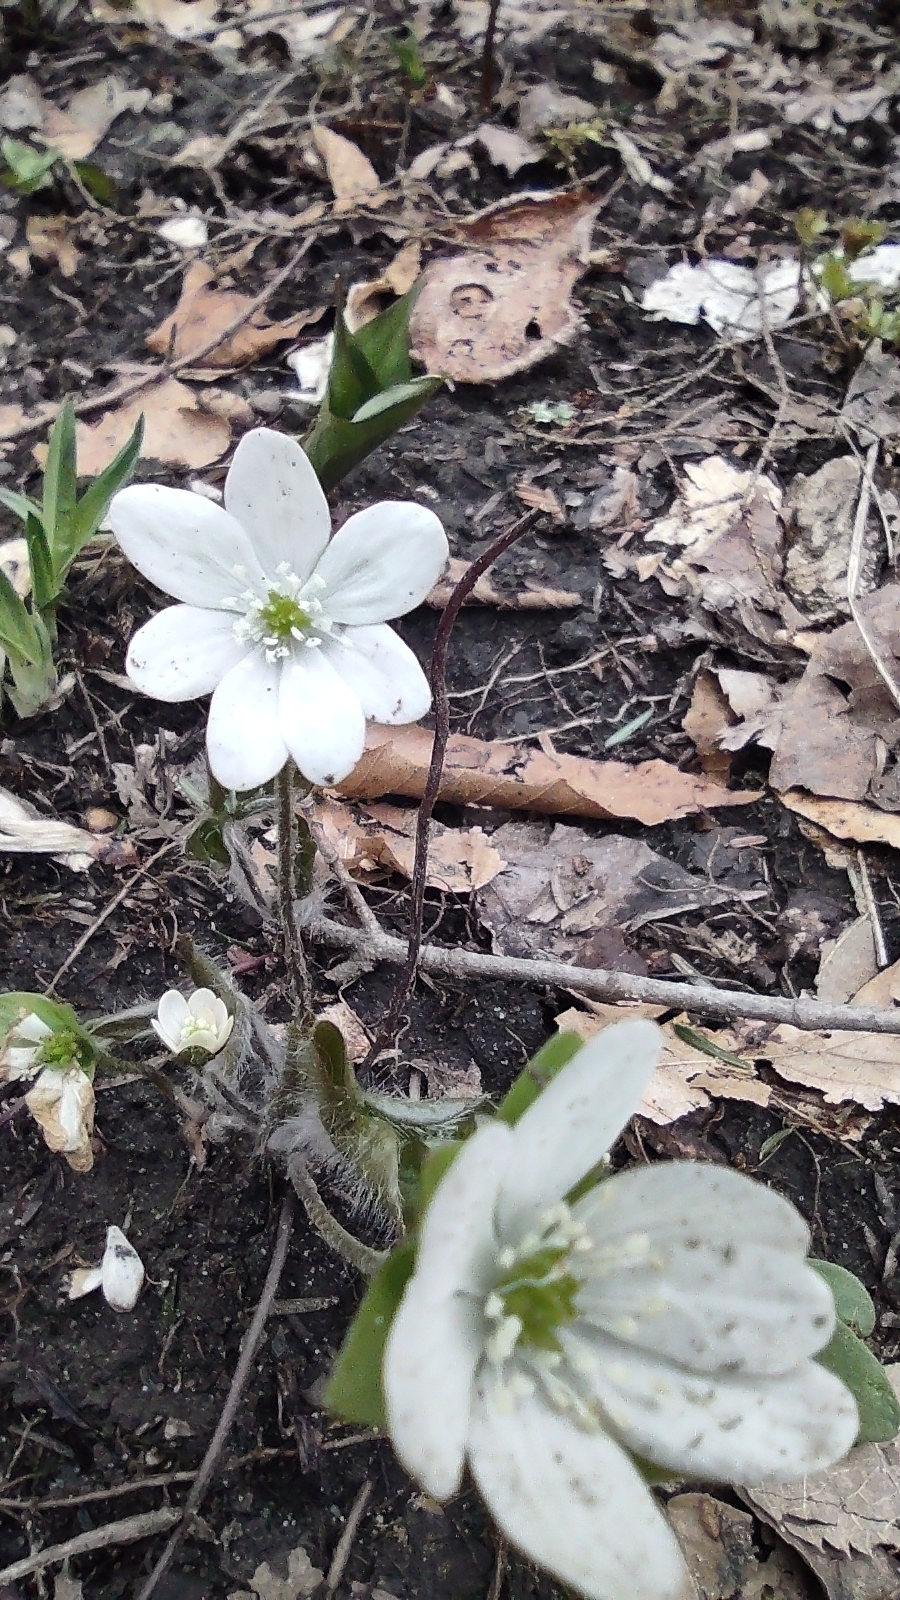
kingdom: Plantae
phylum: Tracheophyta
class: Magnoliopsida
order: Ranunculales
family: Ranunculaceae
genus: Hepatica
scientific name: Hepatica acutiloba
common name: Sharp-lobed hepatica
